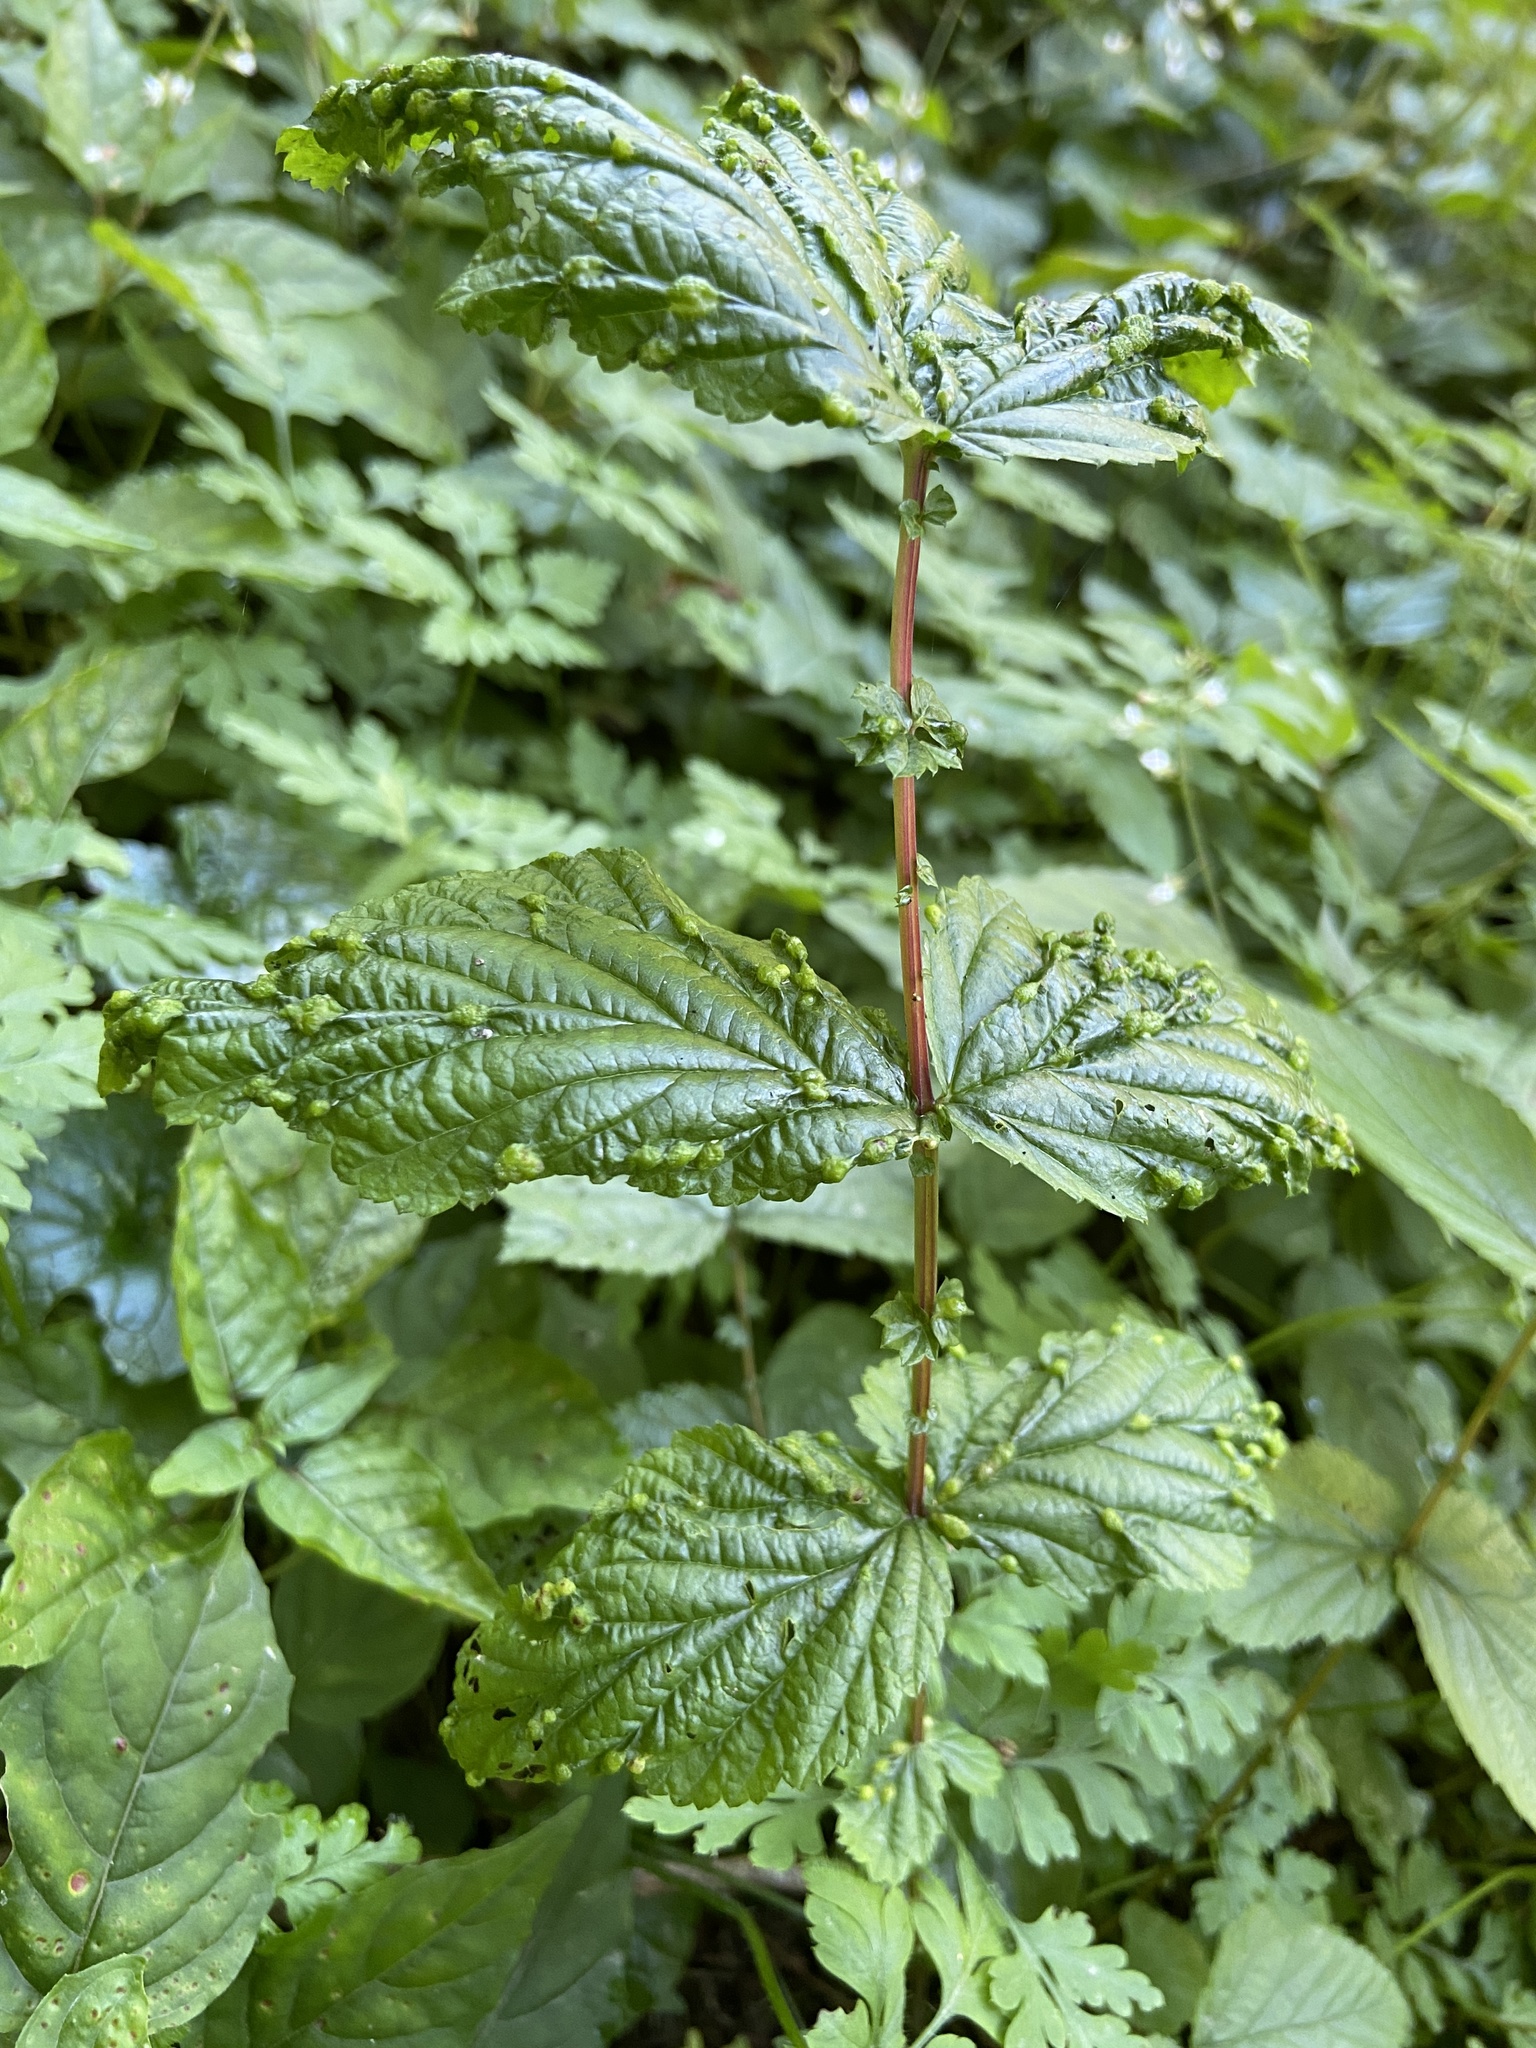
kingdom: Animalia
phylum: Arthropoda
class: Insecta
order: Diptera
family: Cecidomyiidae
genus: Dasineura
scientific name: Dasineura ulmaria
